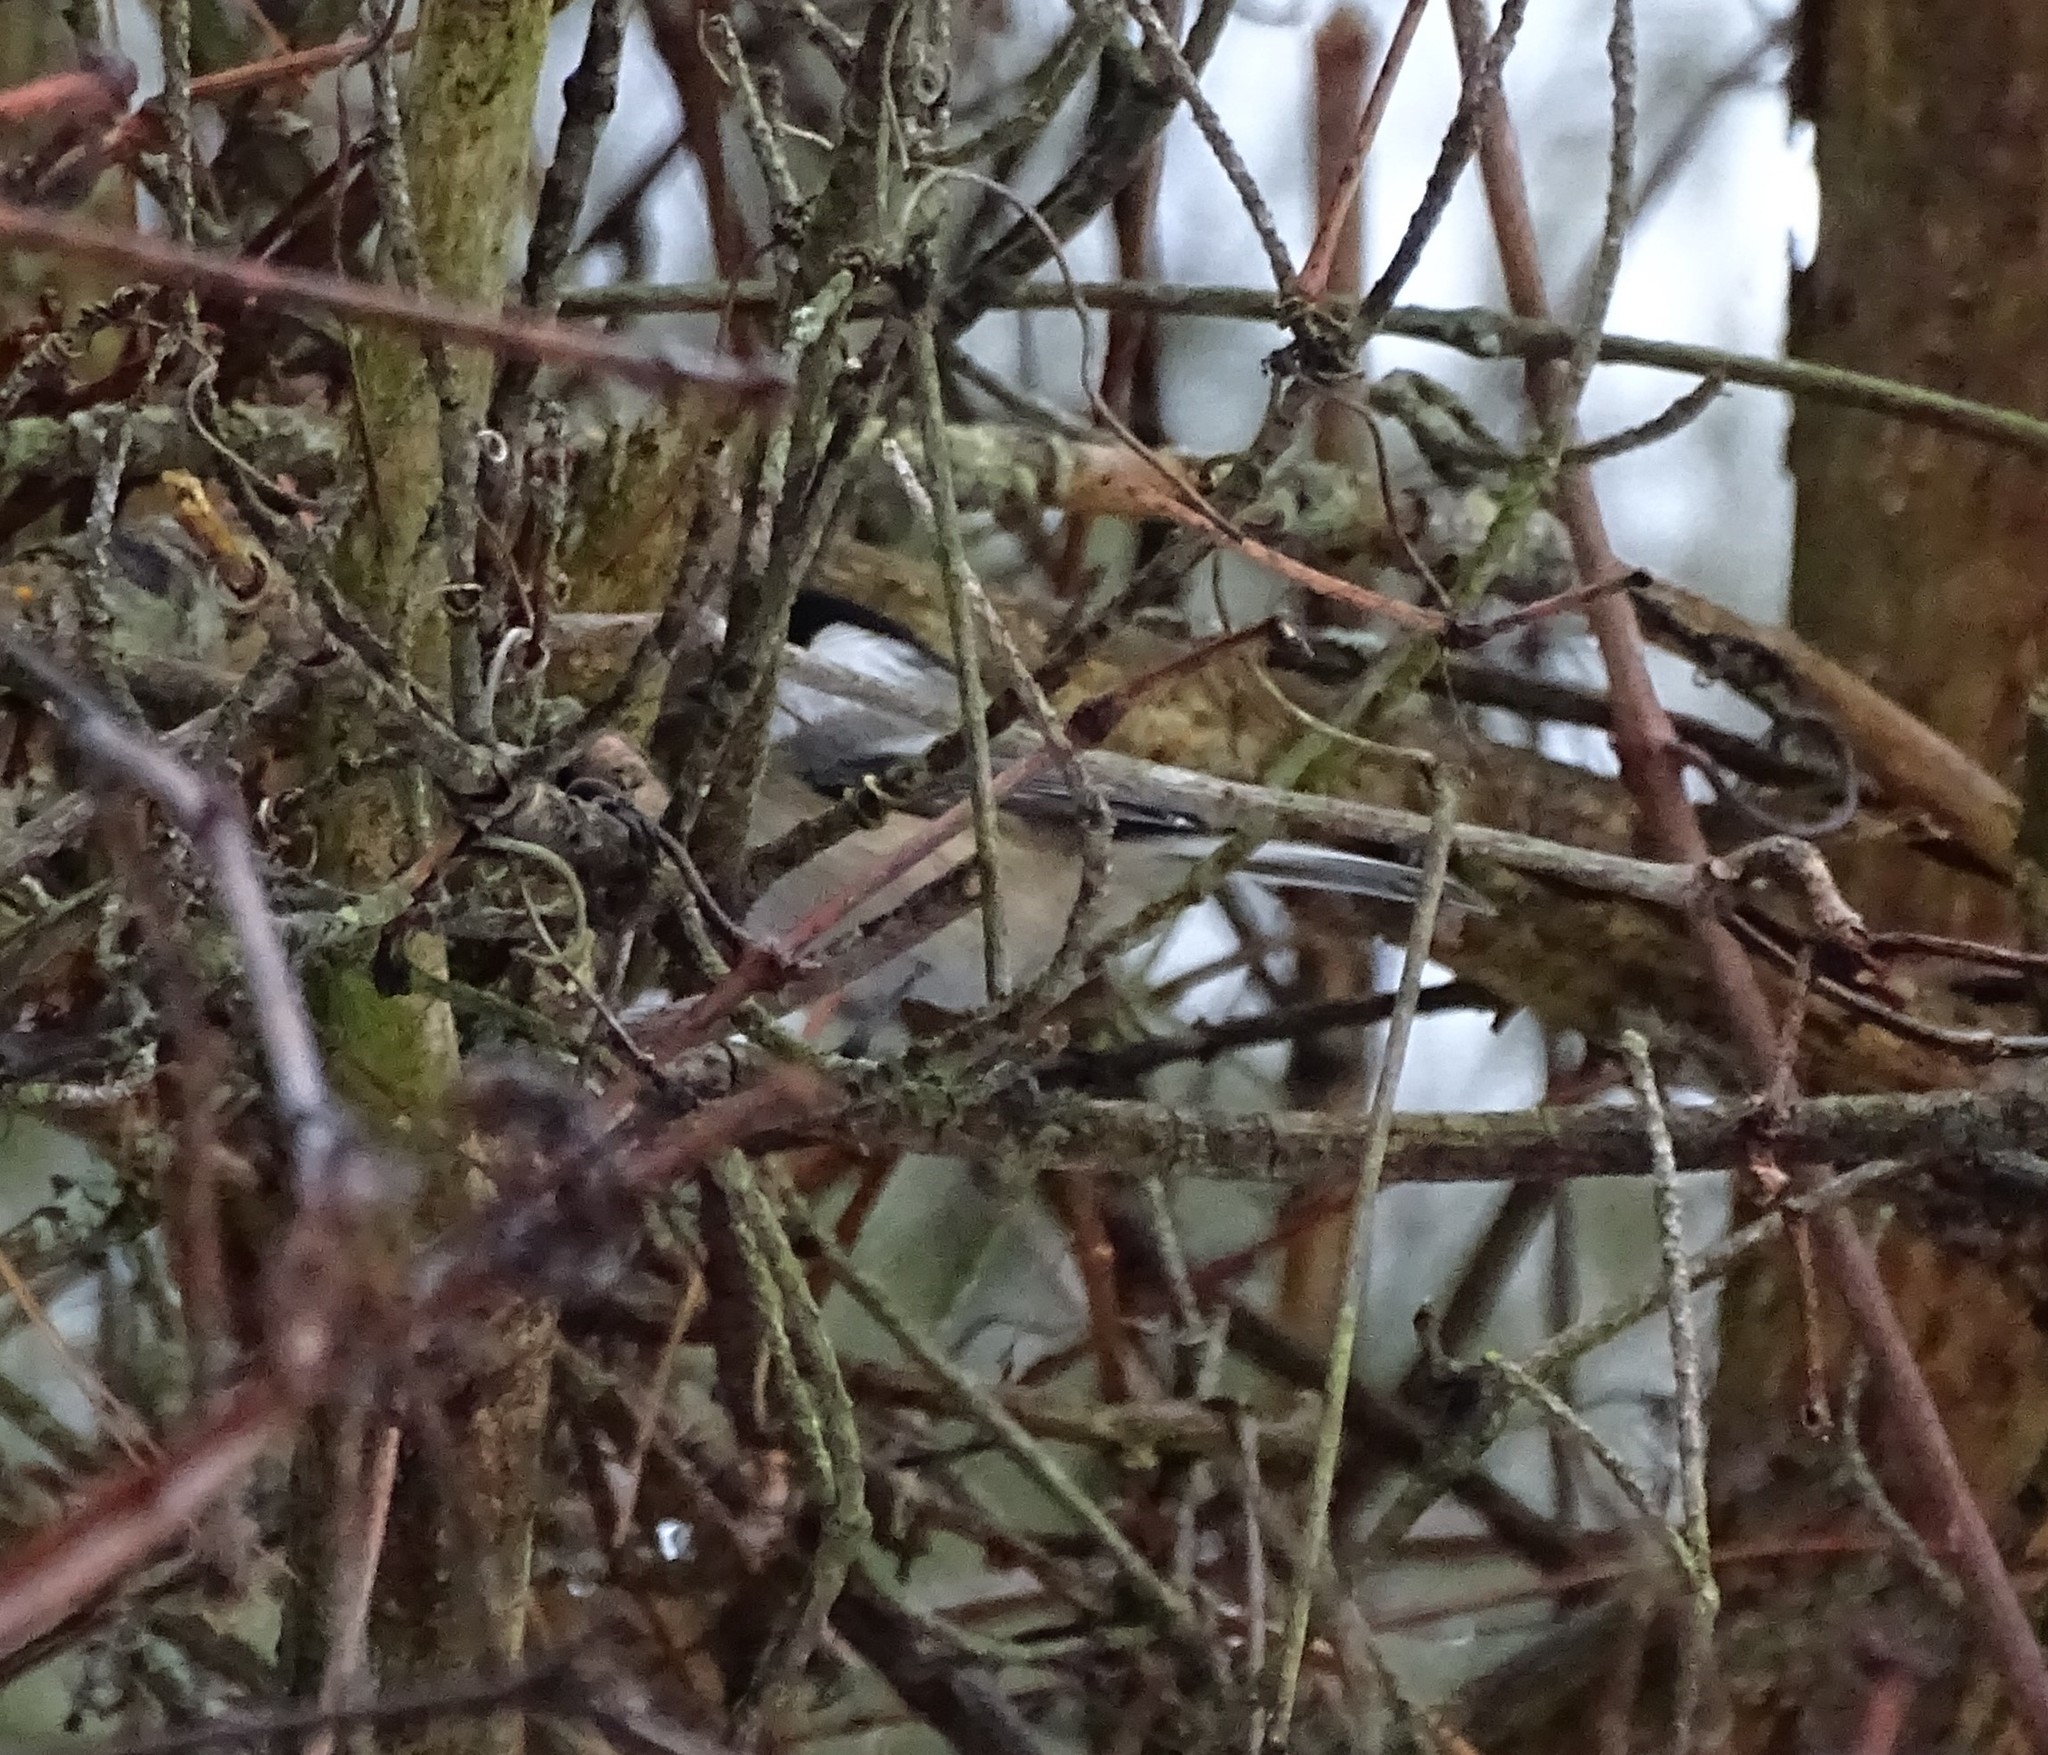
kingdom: Animalia
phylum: Chordata
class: Aves
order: Passeriformes
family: Paridae
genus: Poecile
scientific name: Poecile atricapillus
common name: Black-capped chickadee
